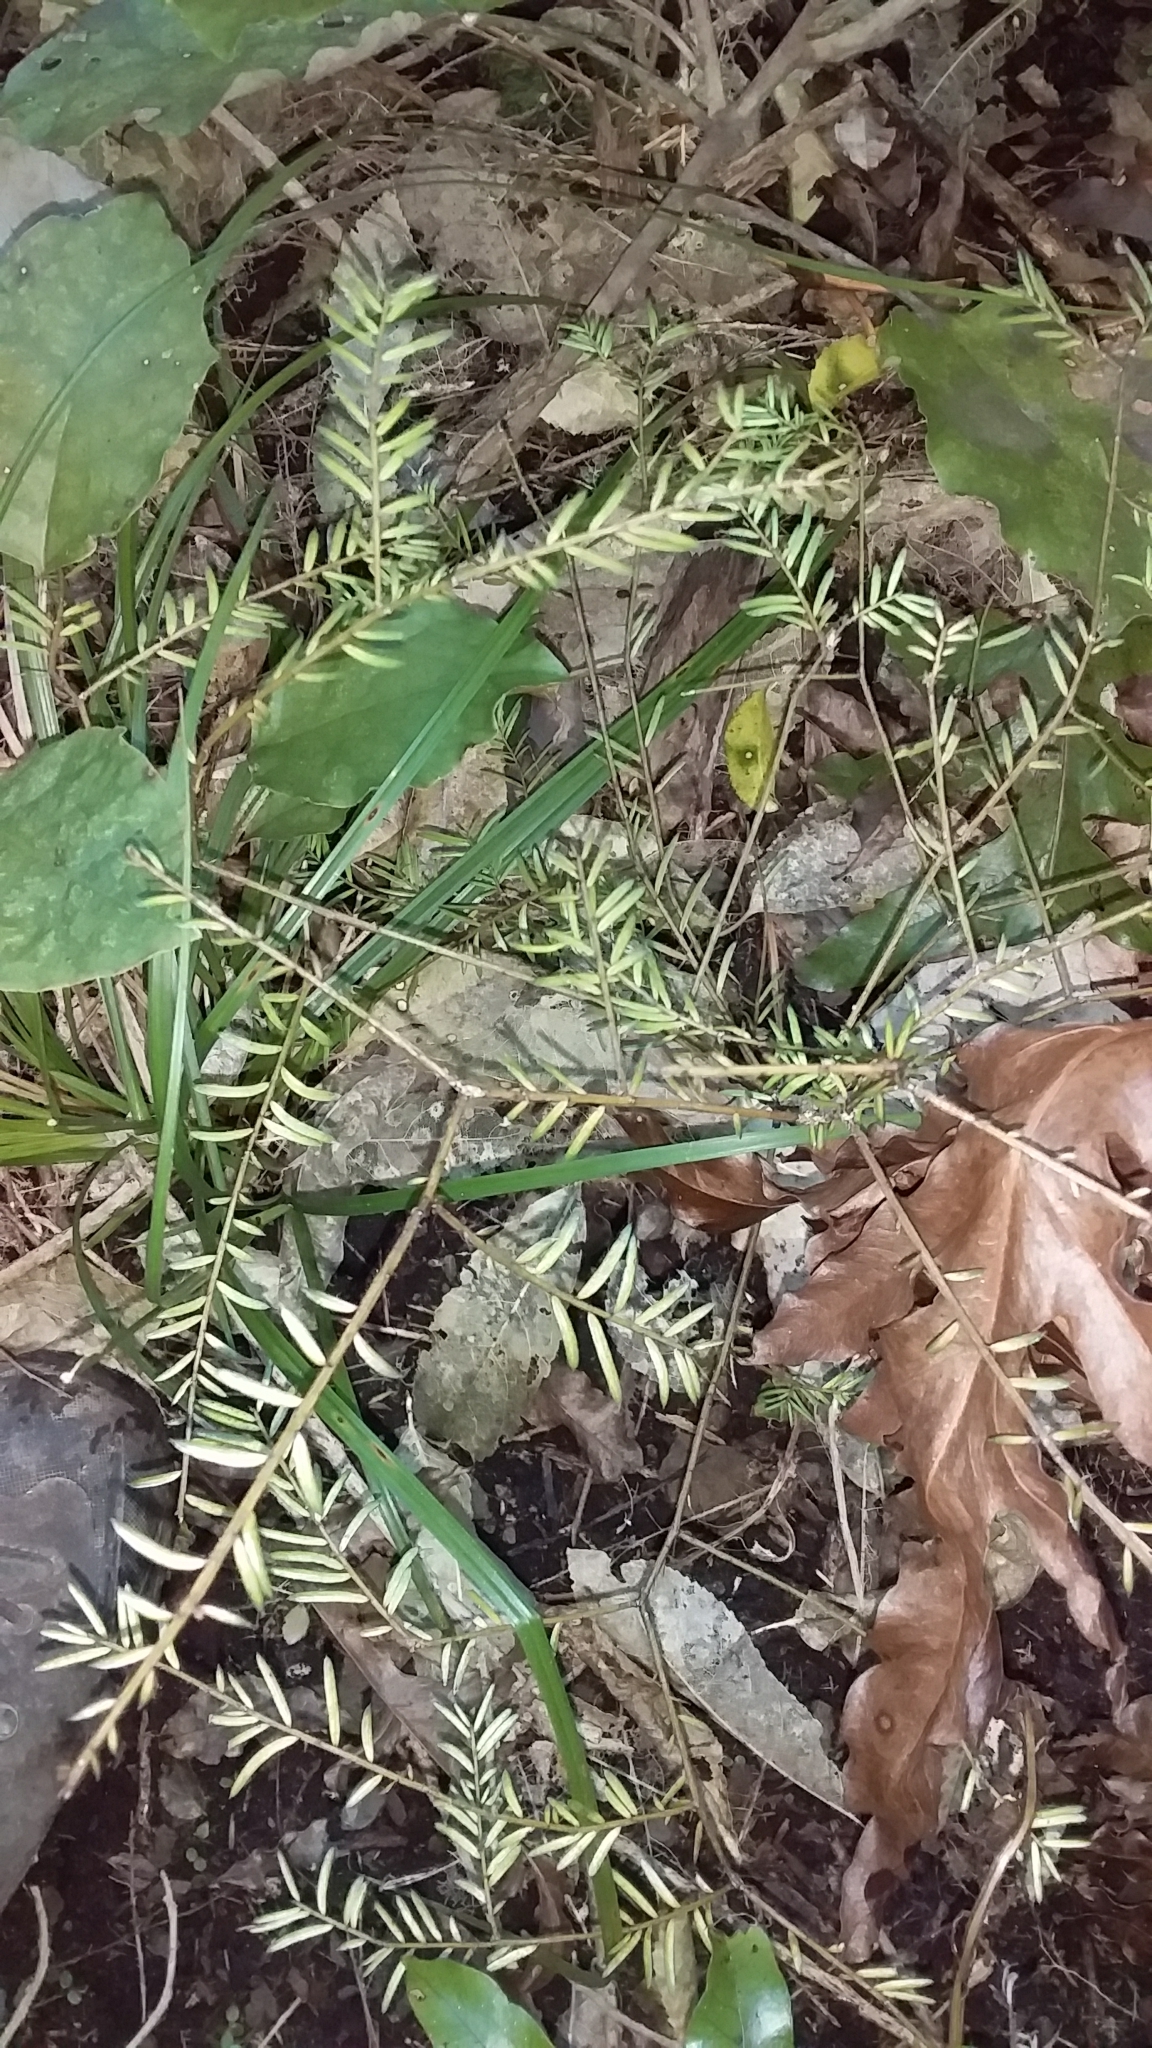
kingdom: Plantae
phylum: Tracheophyta
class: Pinopsida
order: Pinales
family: Podocarpaceae
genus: Prumnopitys
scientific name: Prumnopitys taxifolia
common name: Matai
